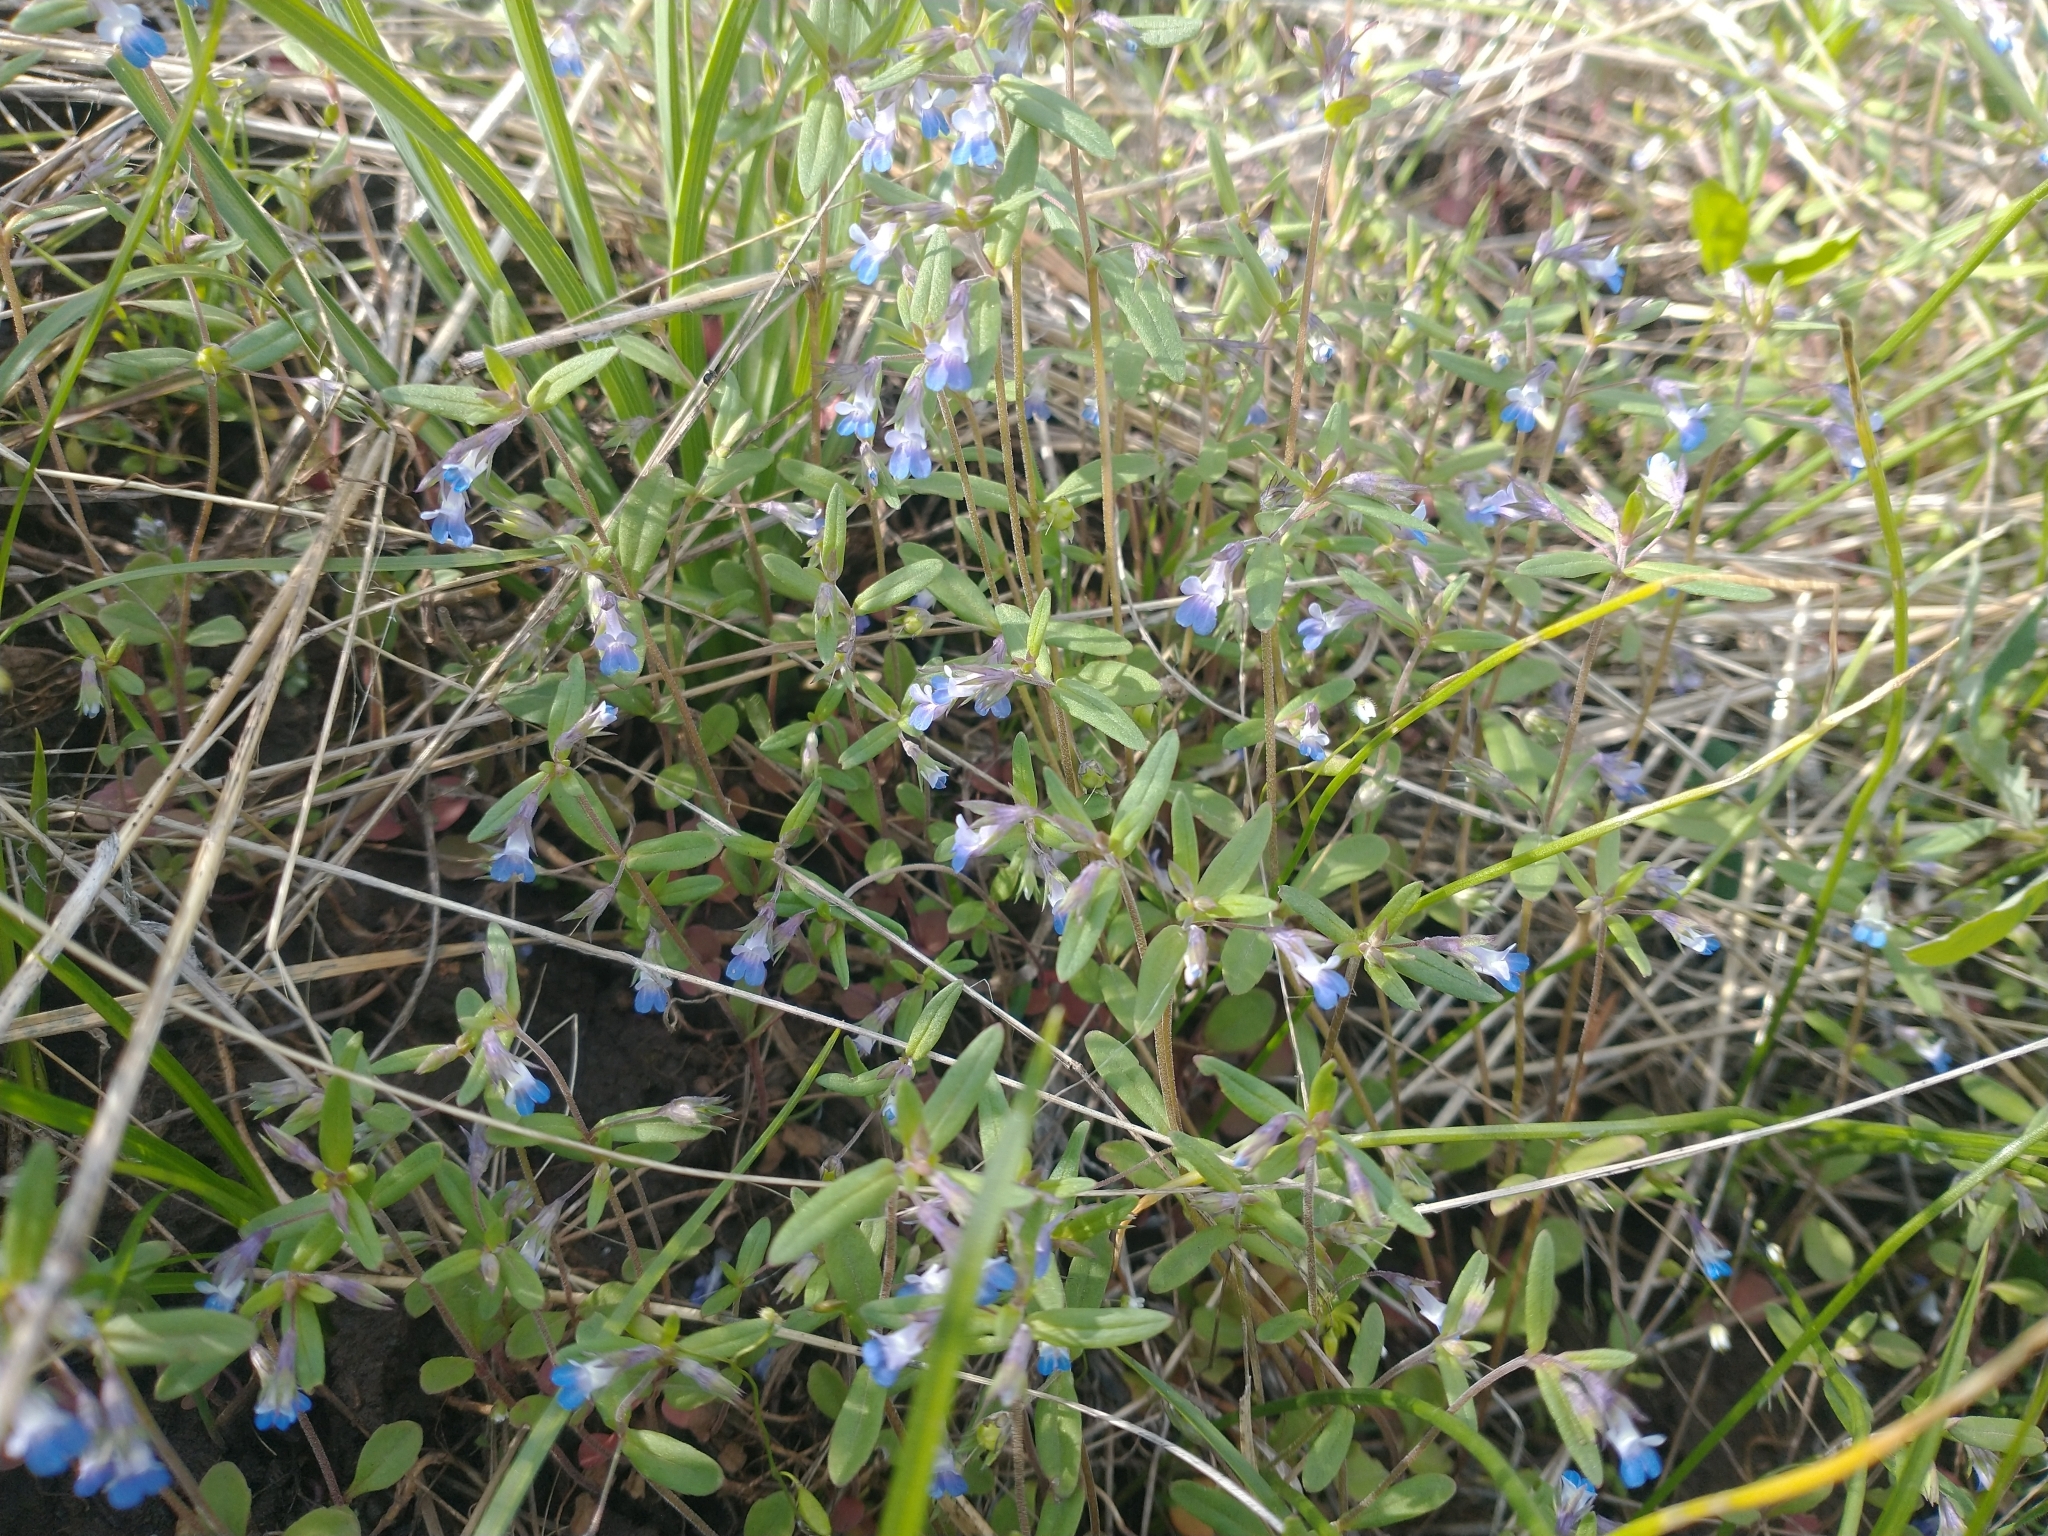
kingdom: Plantae
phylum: Tracheophyta
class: Magnoliopsida
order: Lamiales
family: Plantaginaceae
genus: Collinsia
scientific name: Collinsia parviflora
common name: Blue-lips
